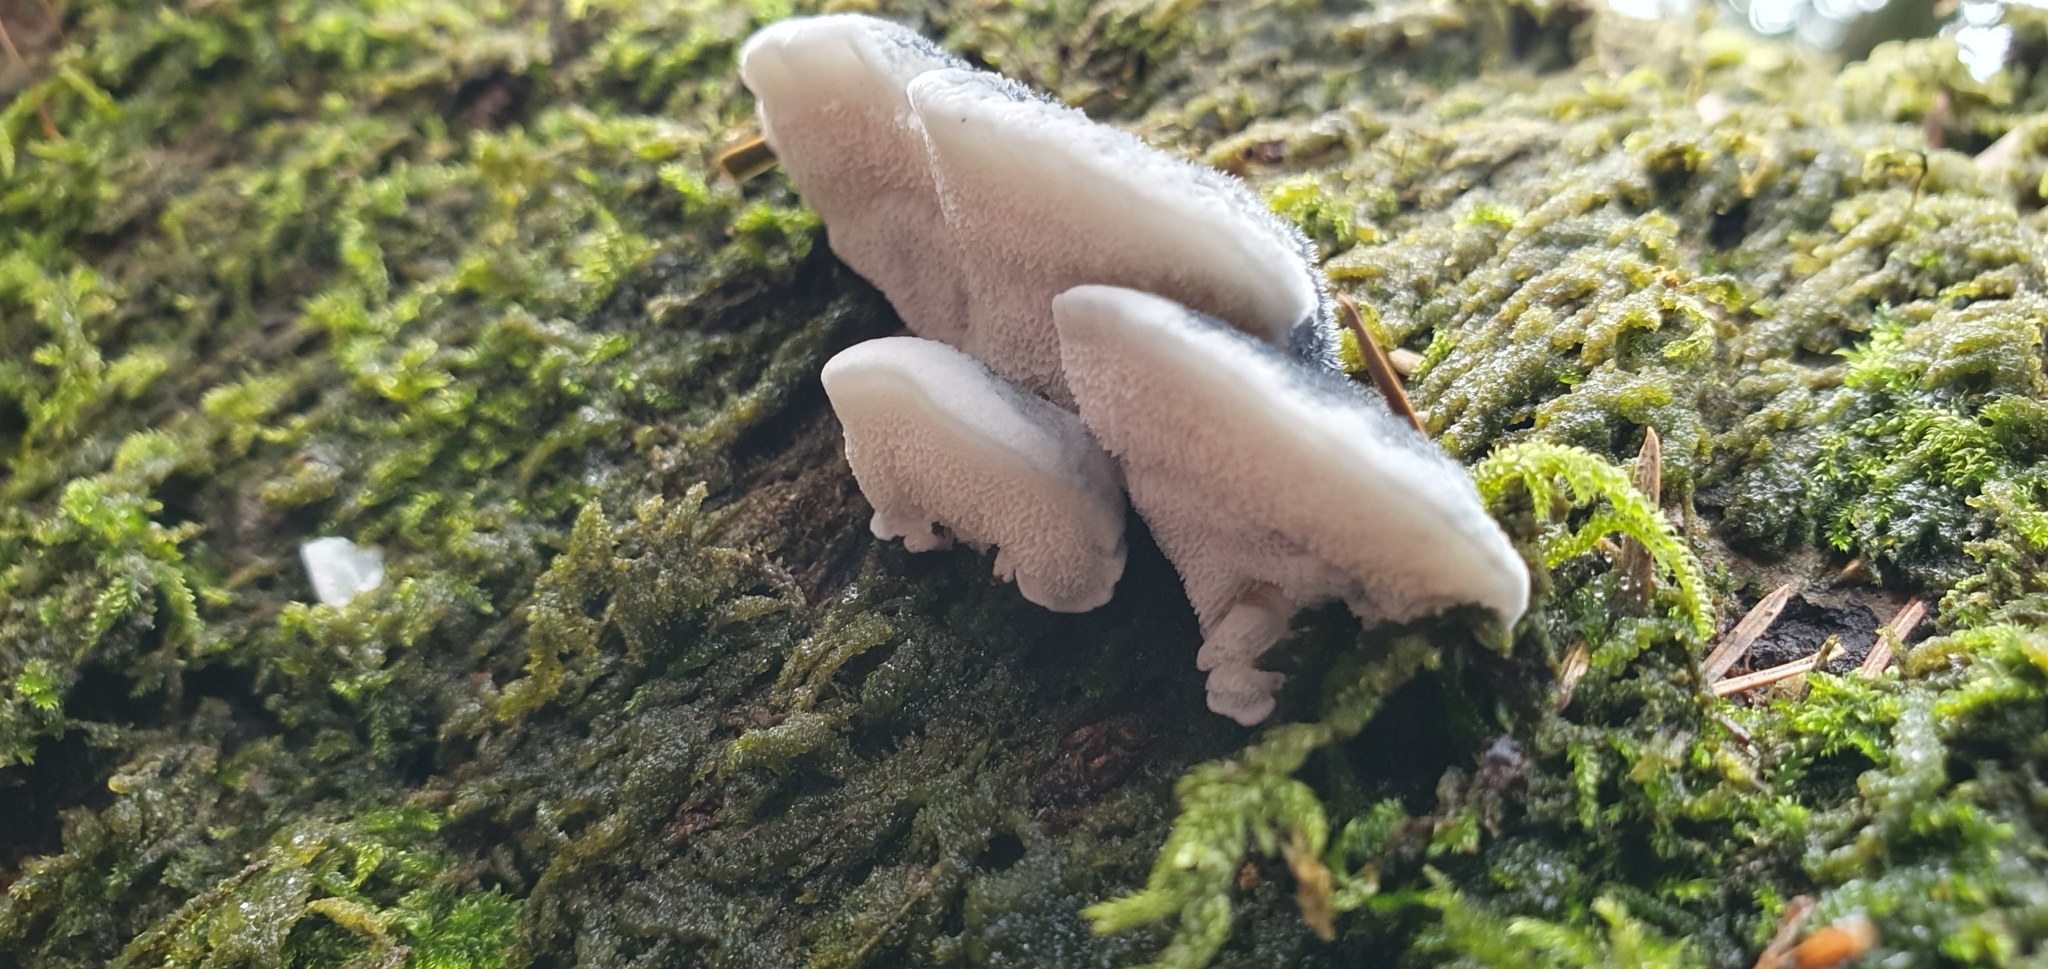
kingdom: Fungi
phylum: Basidiomycota
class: Agaricomycetes
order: Polyporales
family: Polyporaceae
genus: Cyanosporus
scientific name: Cyanosporus caesius
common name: Blue cheese polypore
